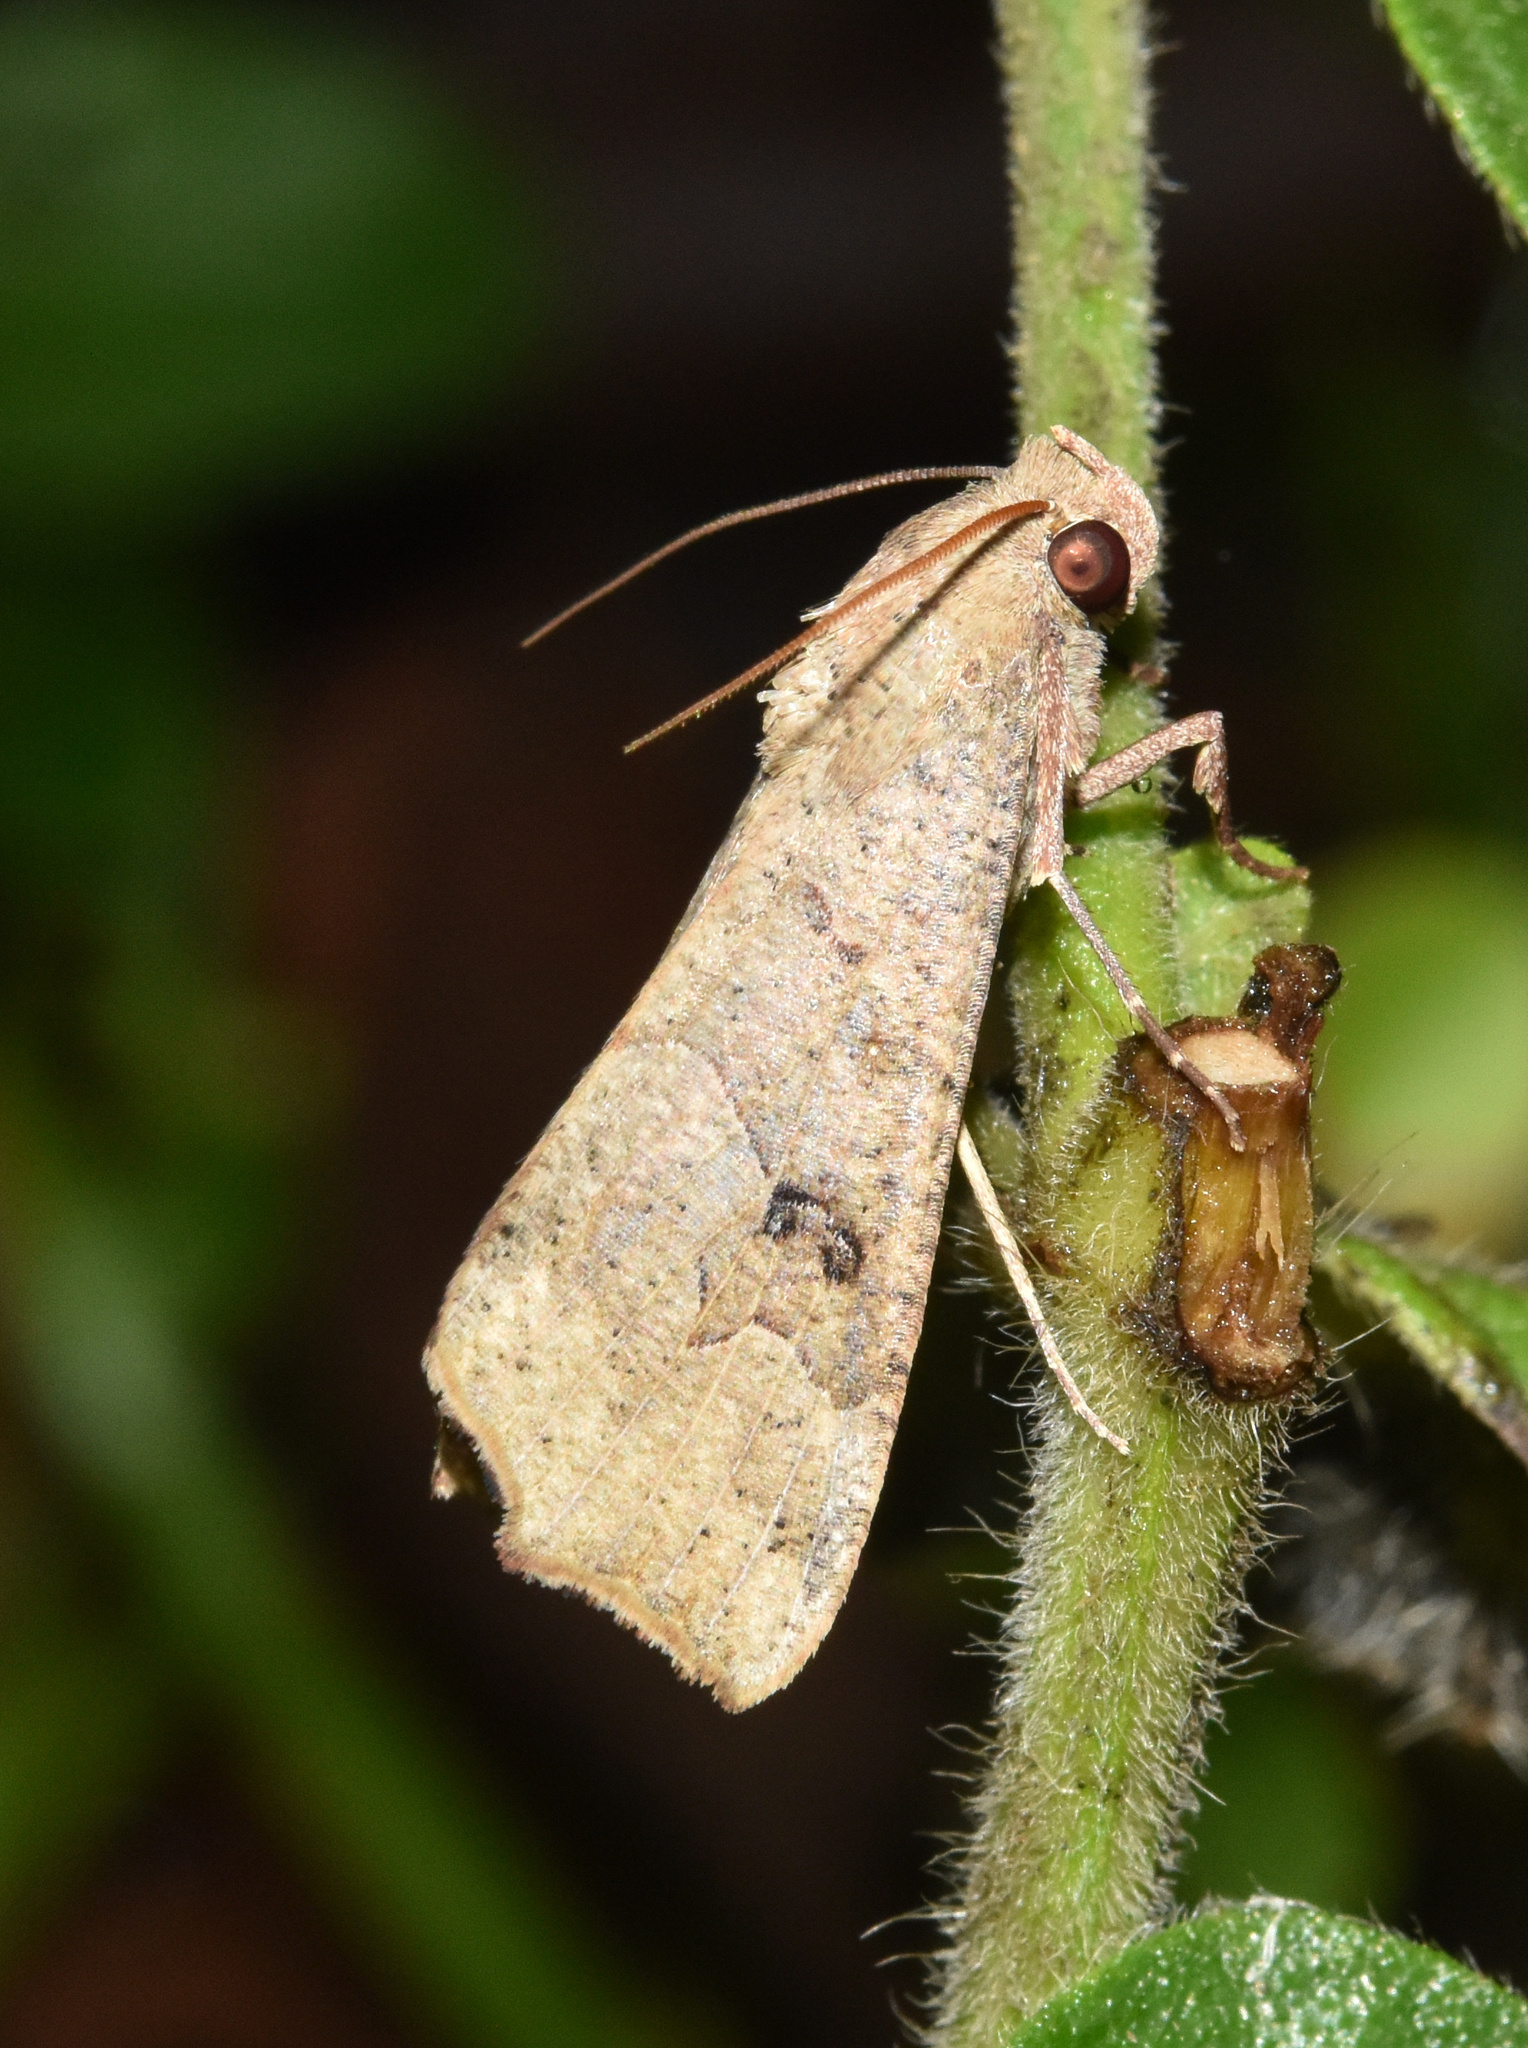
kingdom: Animalia
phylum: Arthropoda
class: Insecta
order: Lepidoptera
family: Erebidae
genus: Anomis
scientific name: Anomis sabulifera
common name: Angled gem
